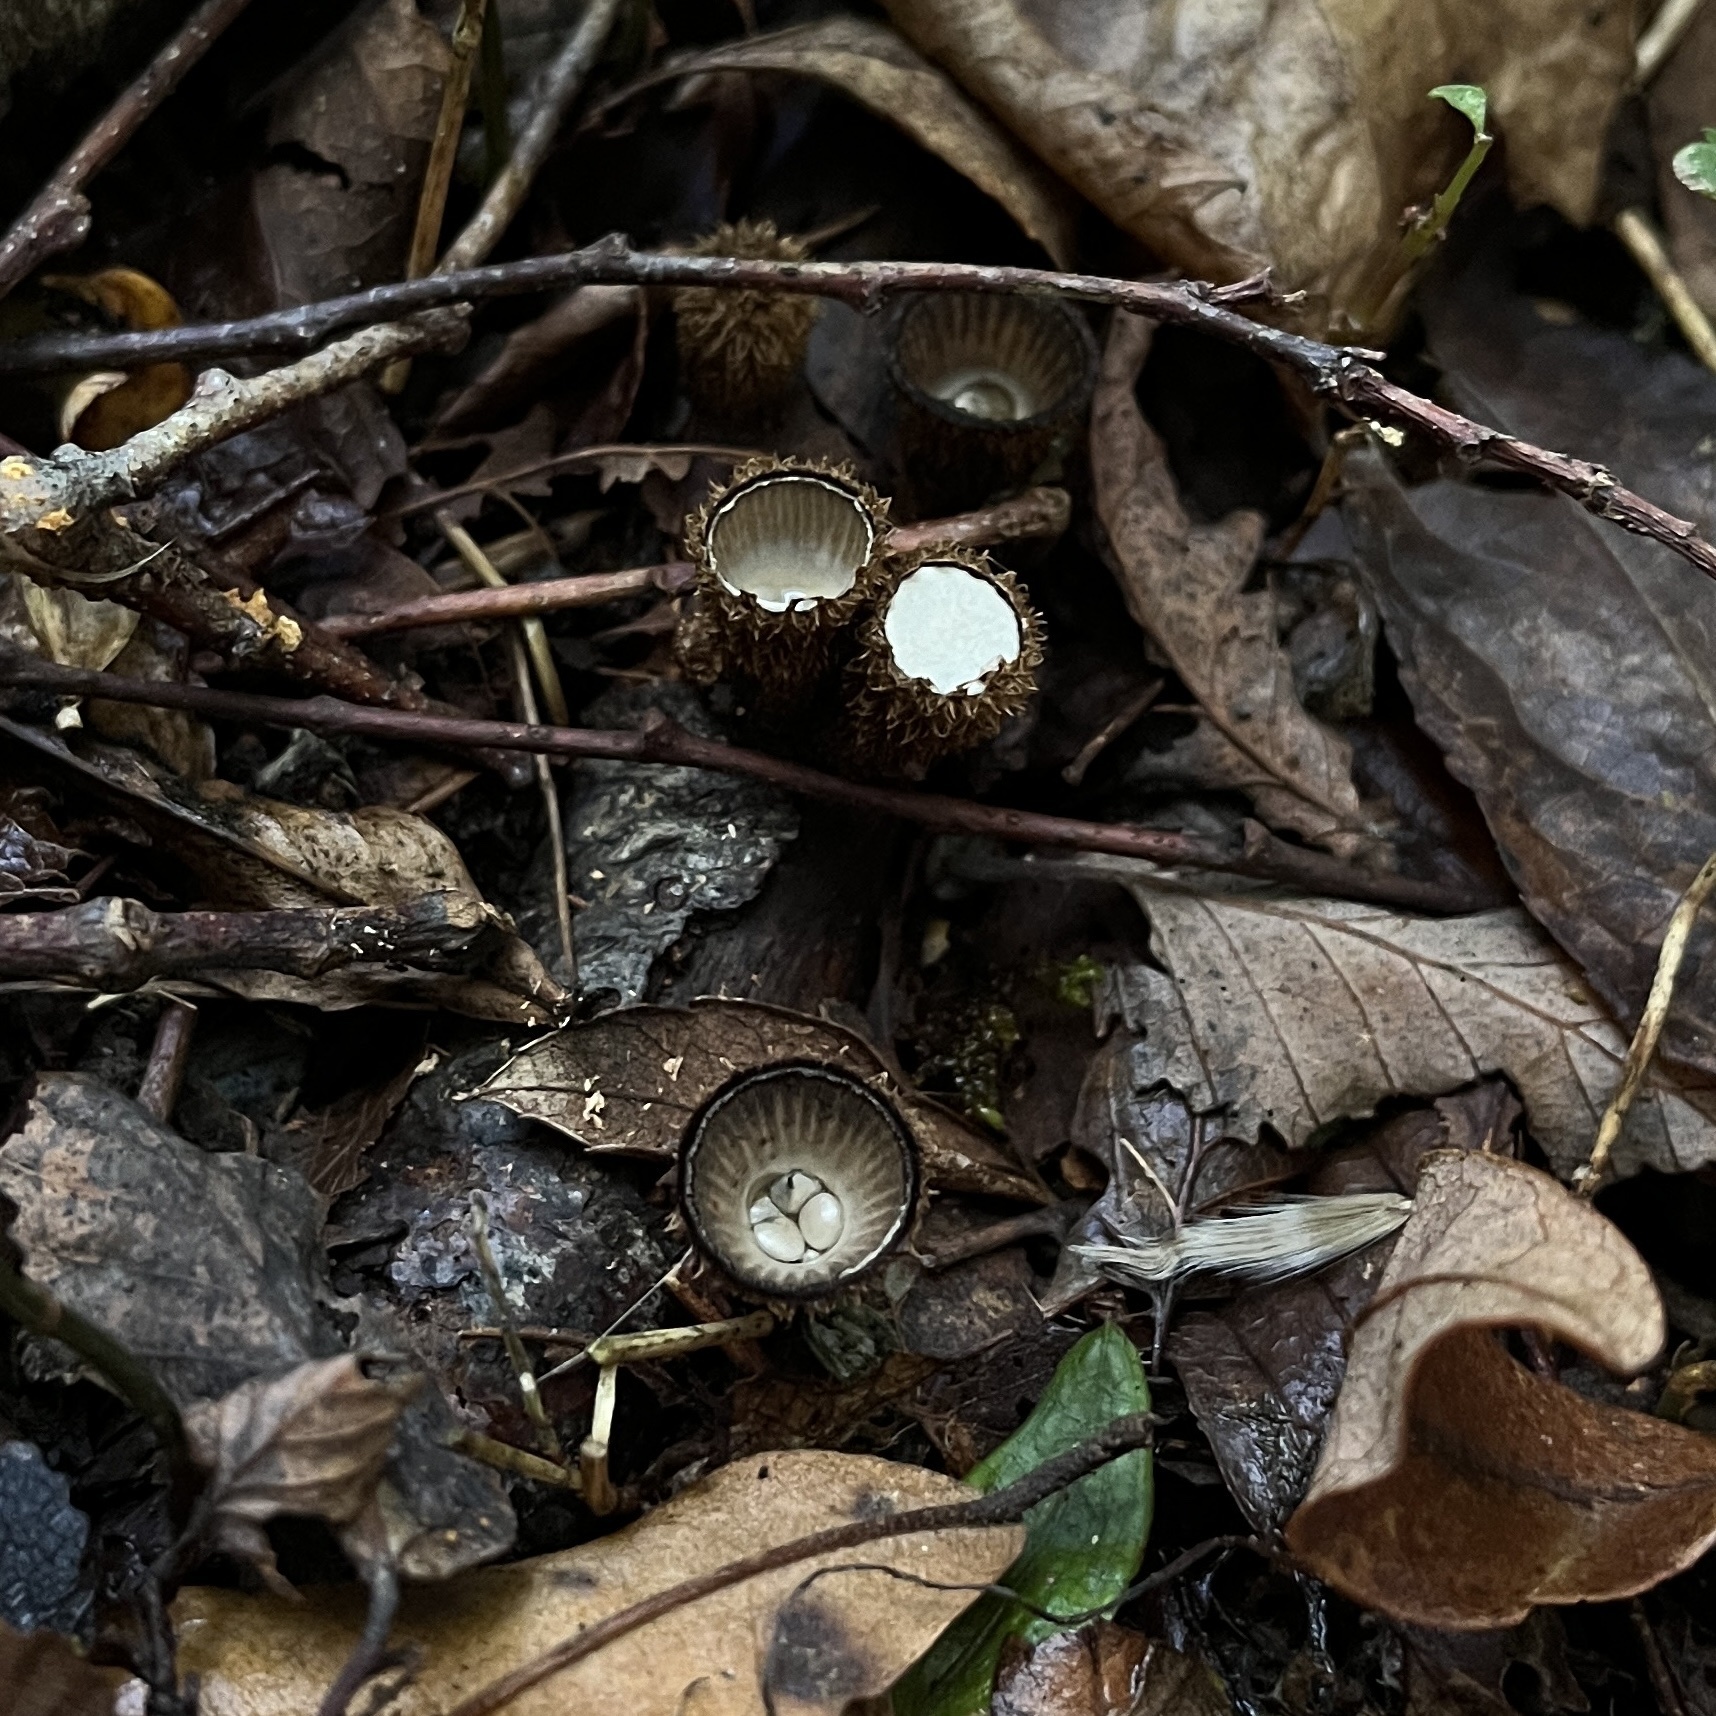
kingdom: Fungi
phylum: Basidiomycota
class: Agaricomycetes
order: Agaricales
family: Agaricaceae
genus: Cyathus
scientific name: Cyathus striatus
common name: Fluted bird's nest
